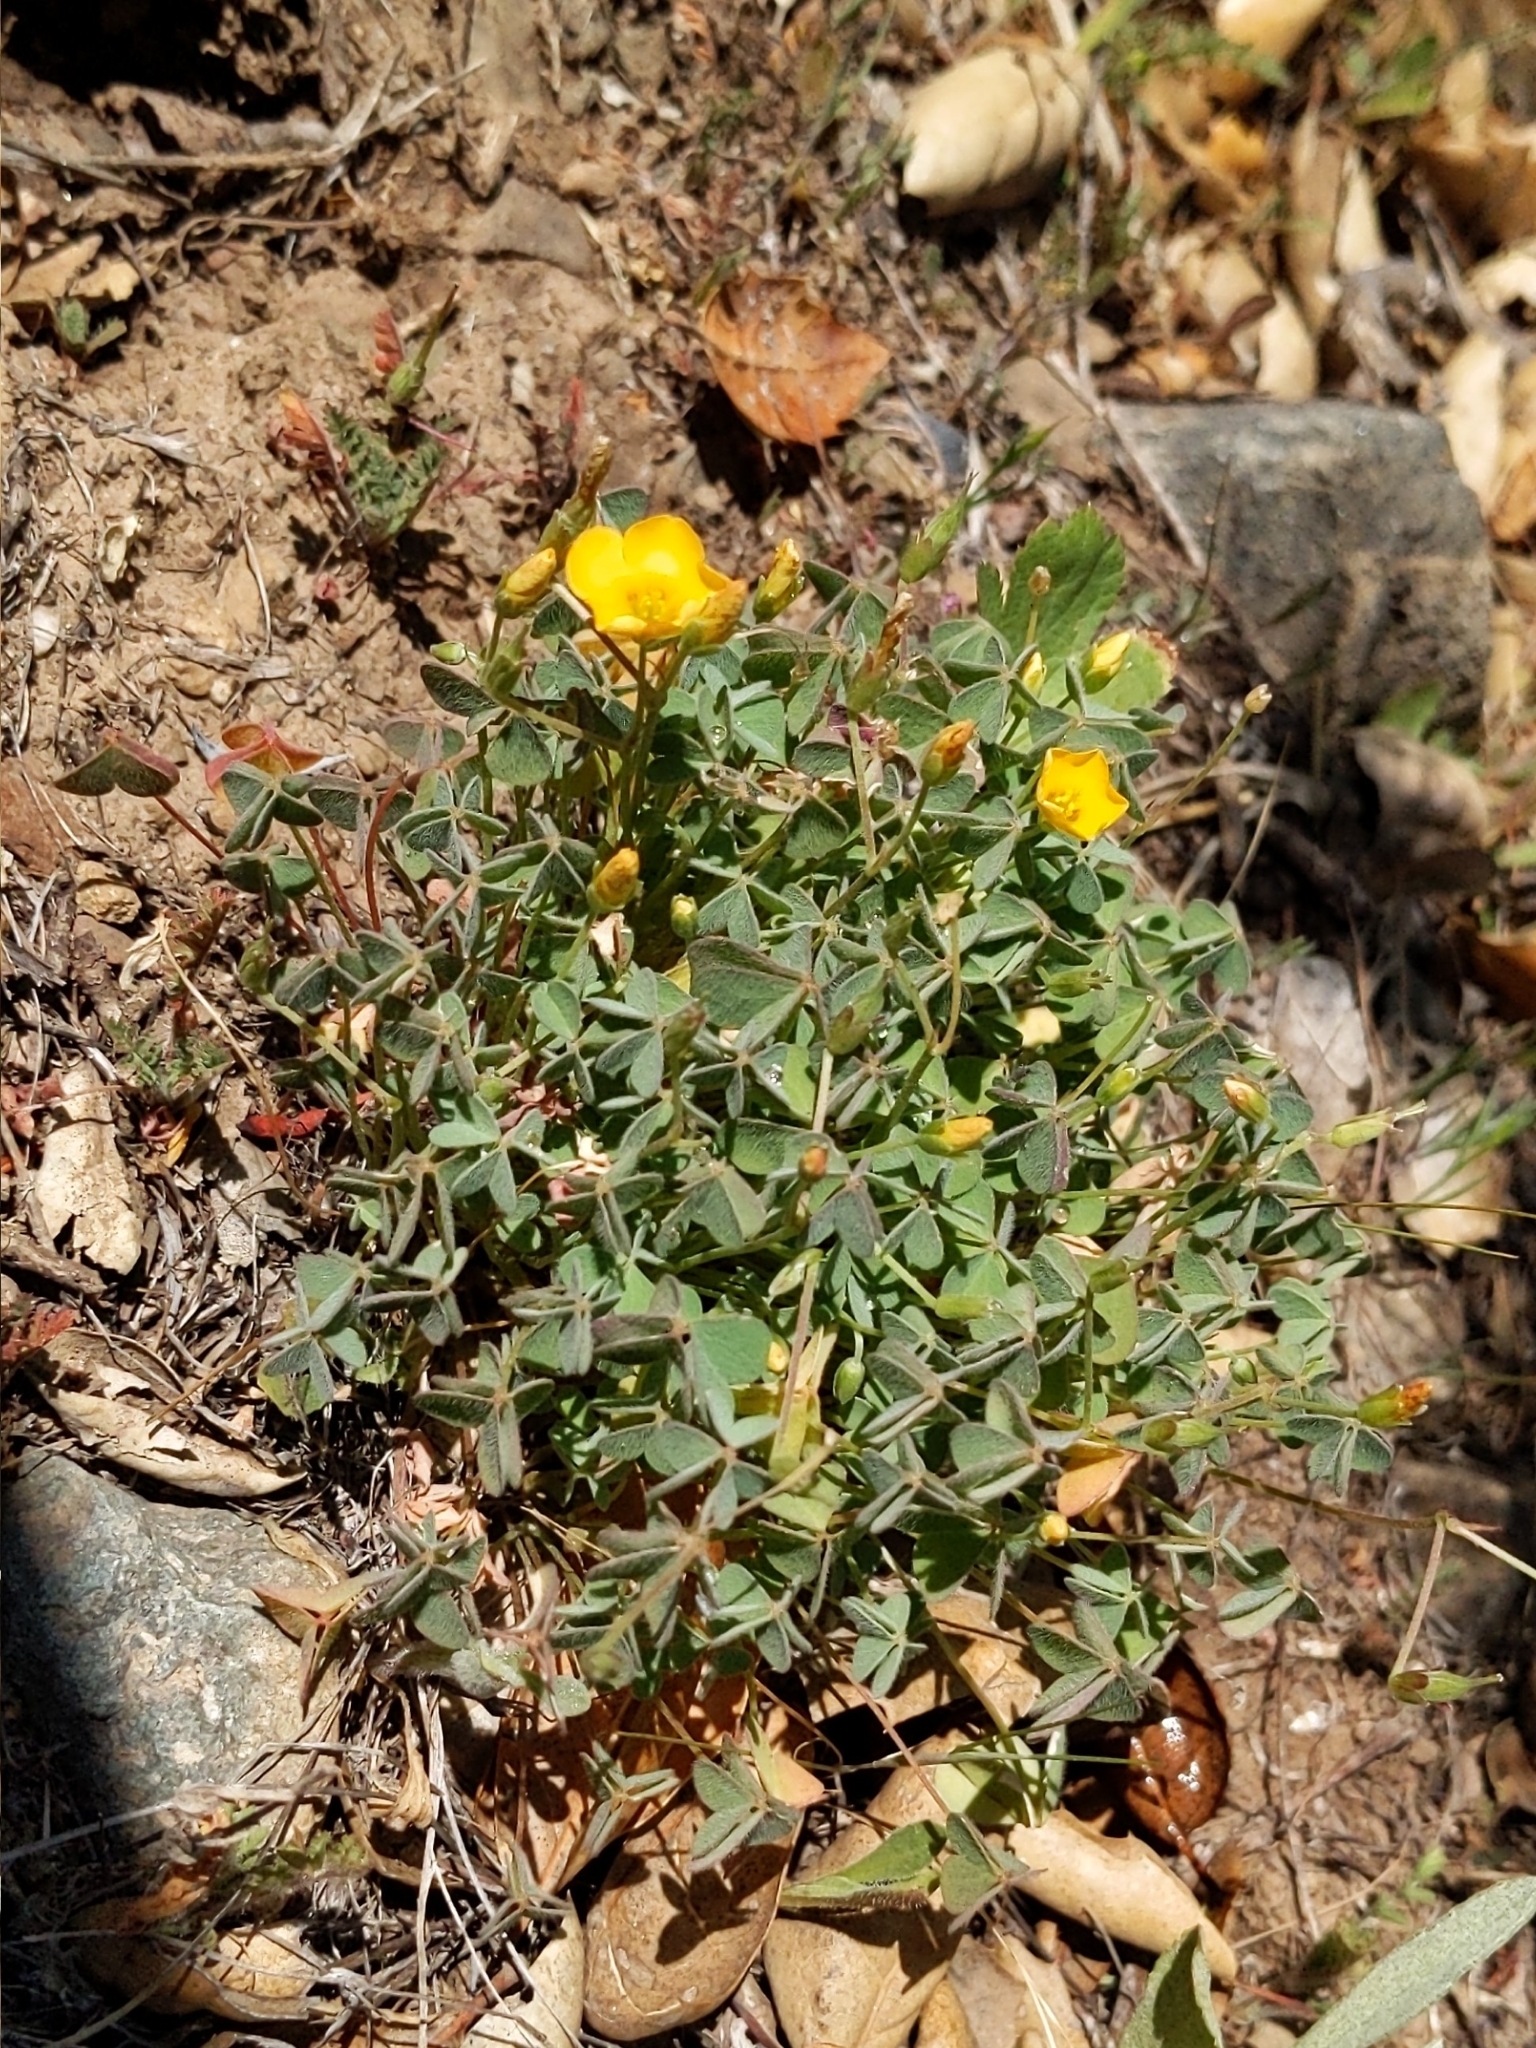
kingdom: Plantae
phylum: Tracheophyta
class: Magnoliopsida
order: Oxalidales
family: Oxalidaceae
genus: Oxalis
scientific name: Oxalis californica
